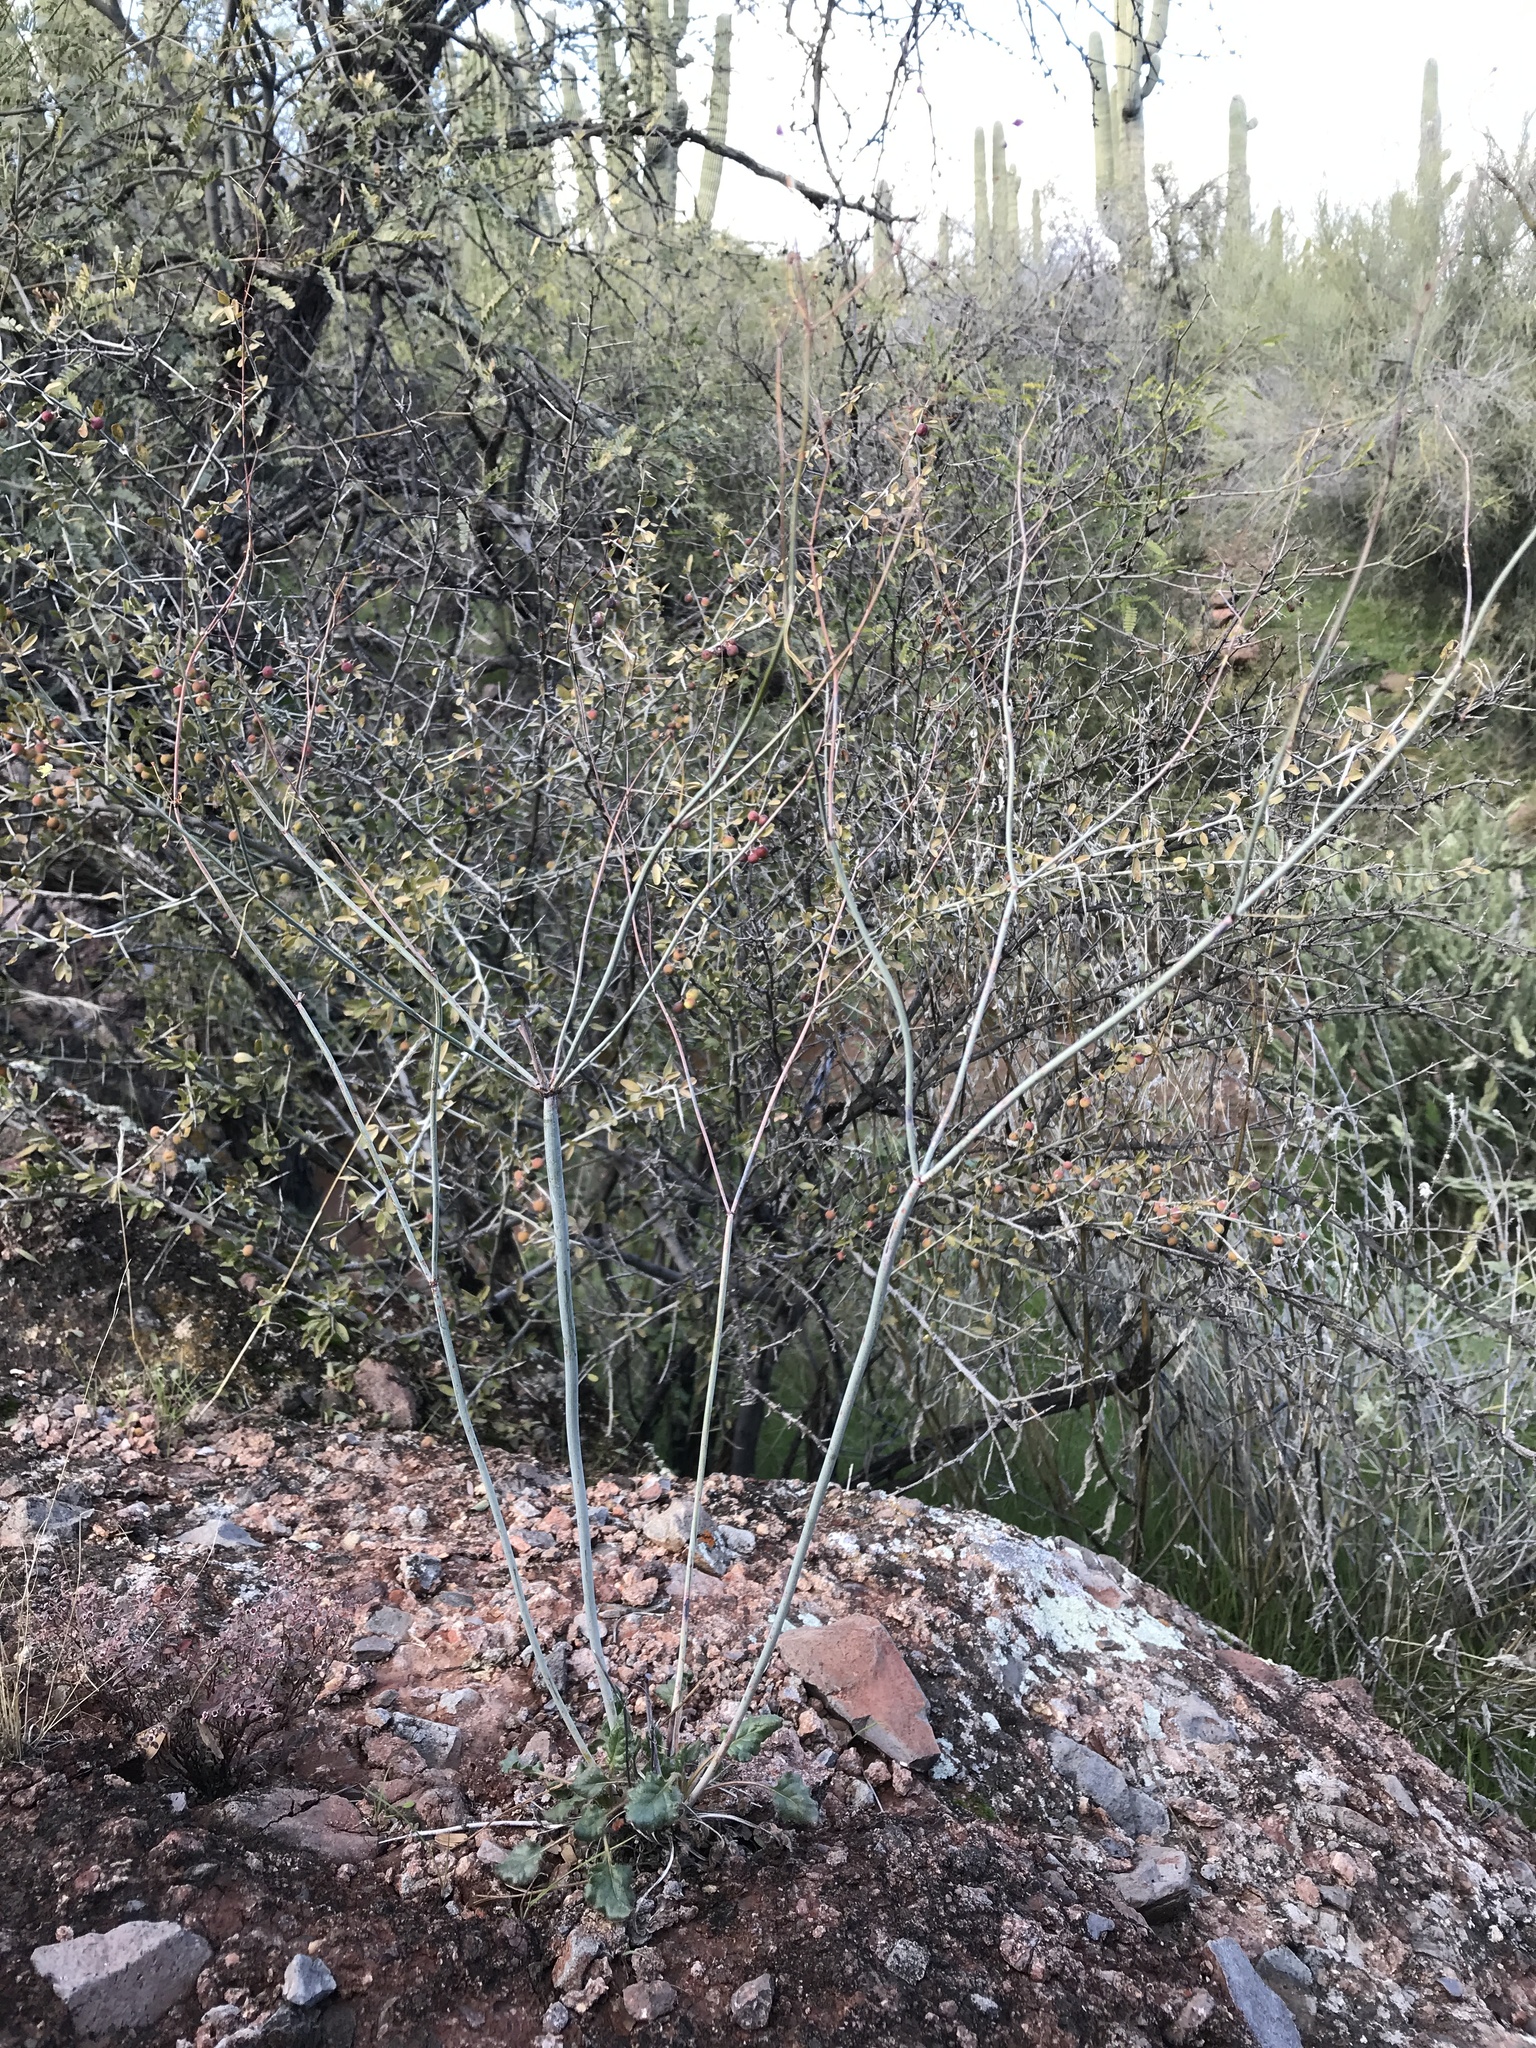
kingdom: Plantae
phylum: Tracheophyta
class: Magnoliopsida
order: Caryophyllales
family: Polygonaceae
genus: Eriogonum
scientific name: Eriogonum inflatum
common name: Desert trumpet
